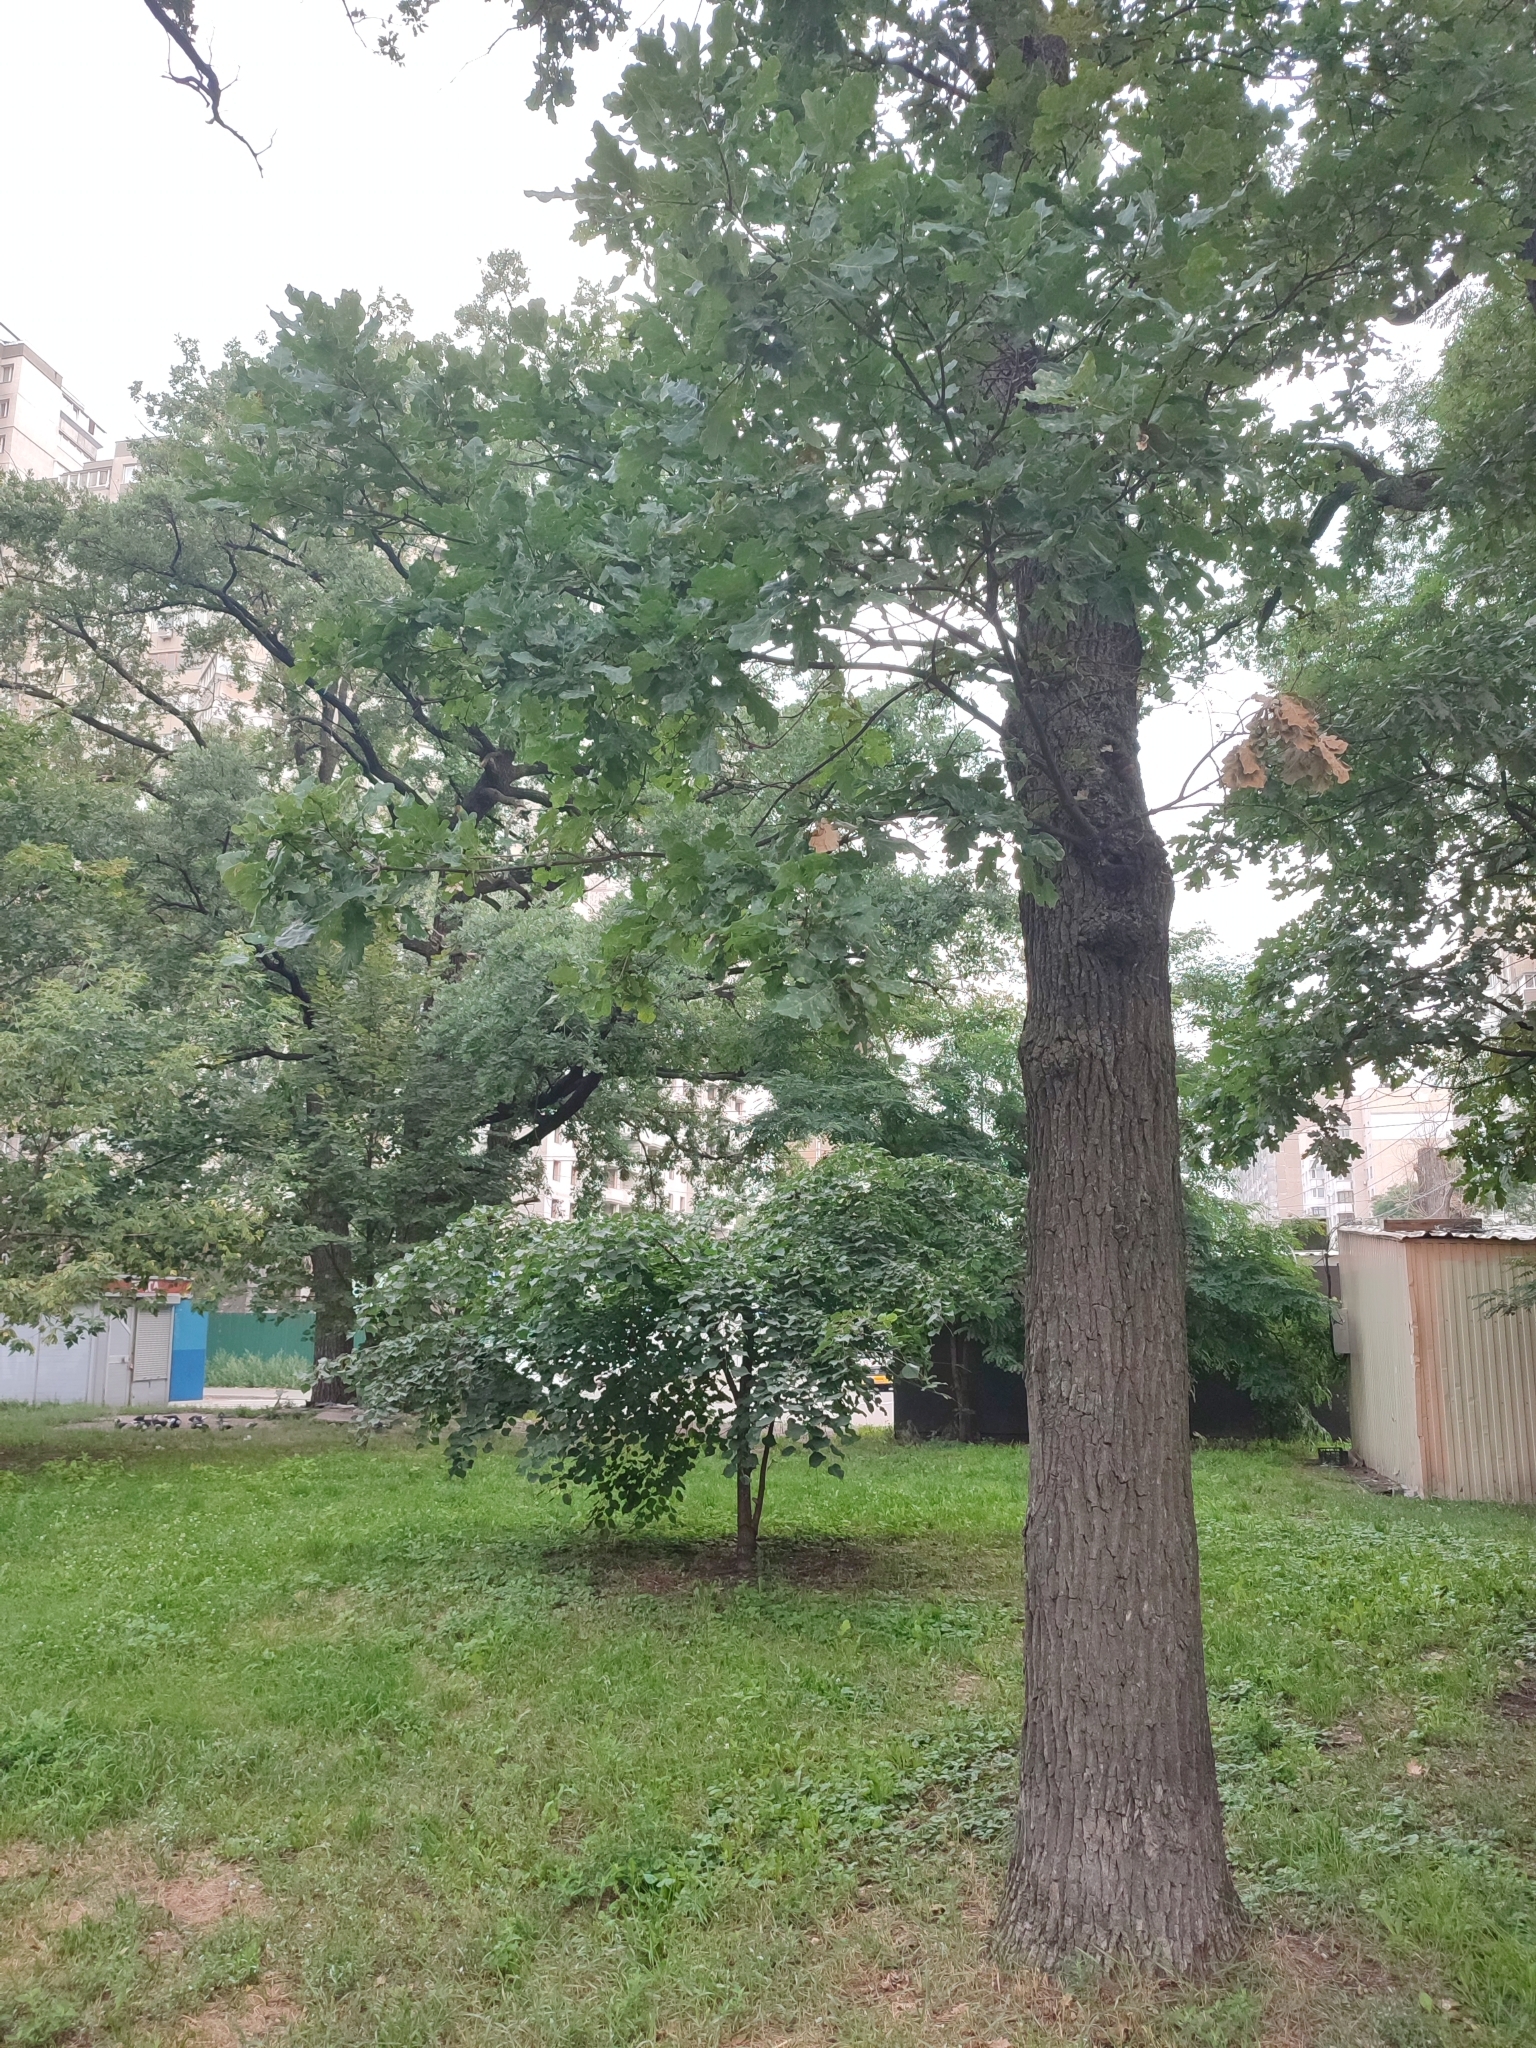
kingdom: Plantae
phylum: Tracheophyta
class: Magnoliopsida
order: Fagales
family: Fagaceae
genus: Quercus
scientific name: Quercus robur
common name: Pedunculate oak
